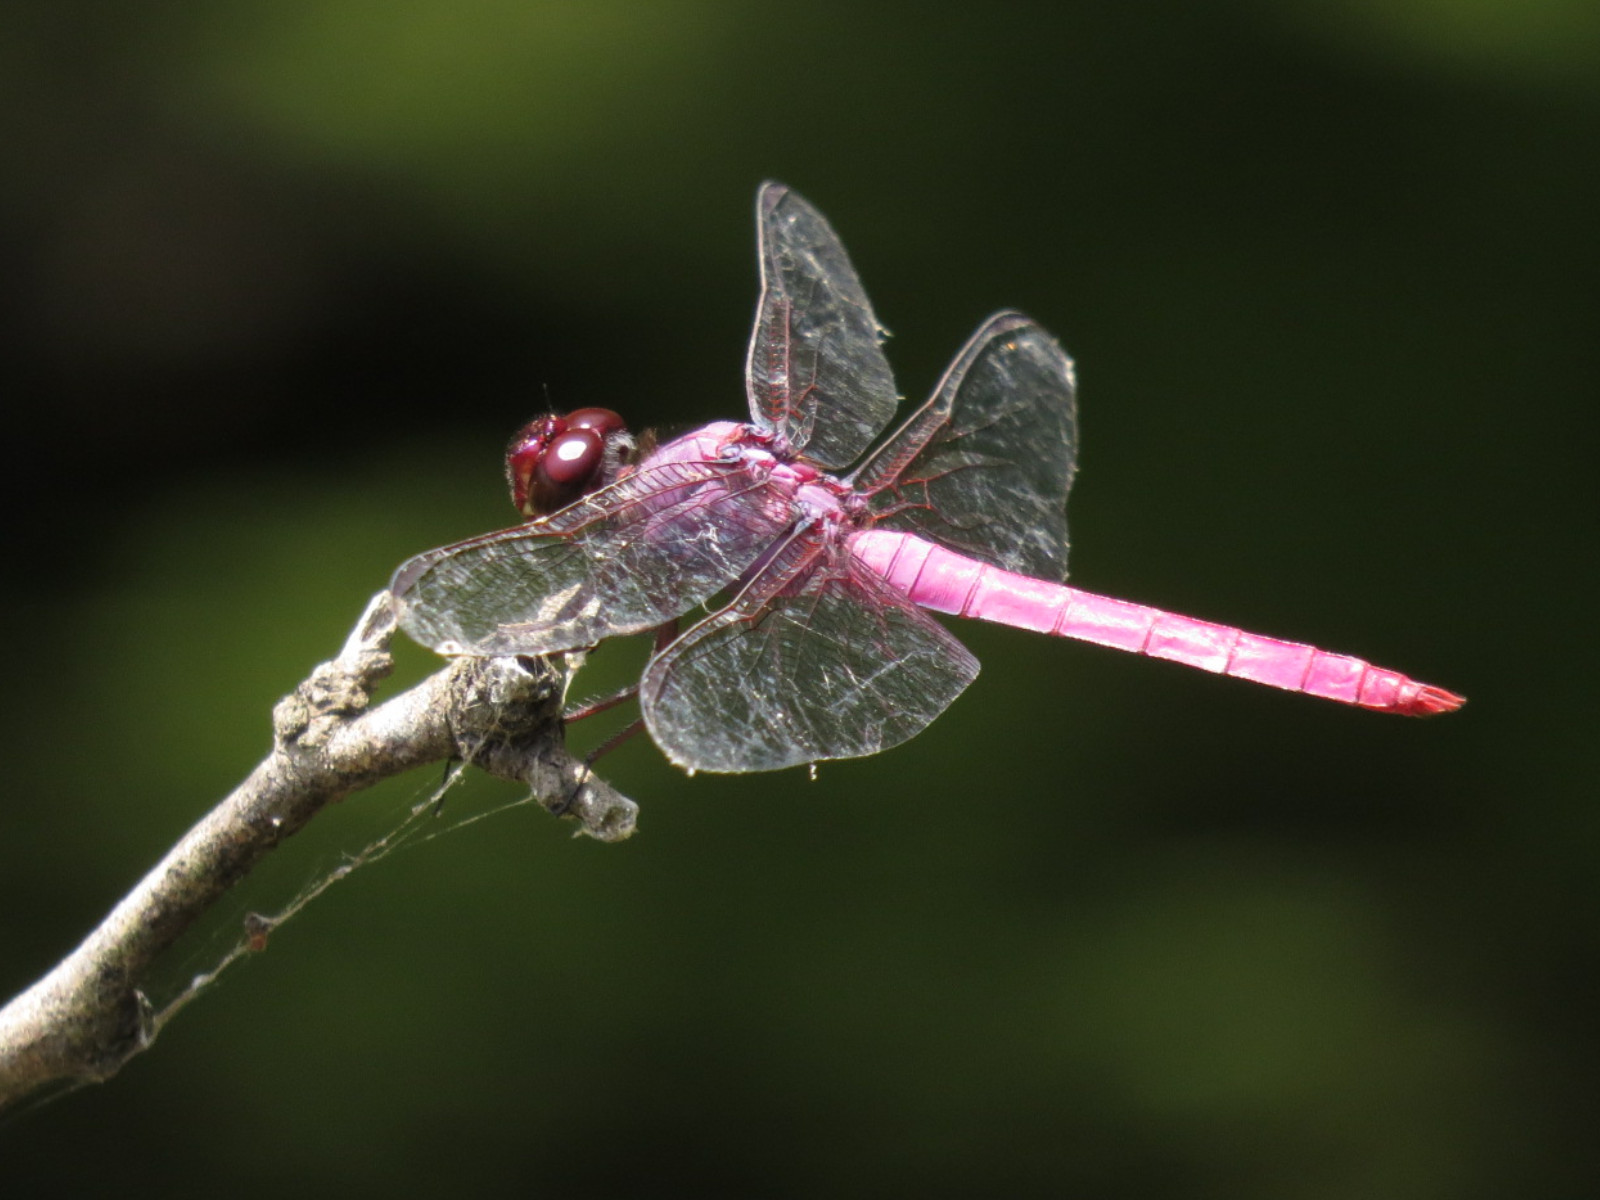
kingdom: Animalia
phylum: Arthropoda
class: Insecta
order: Odonata
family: Libellulidae
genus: Orthemis
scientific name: Orthemis ferruginea
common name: Roseate skimmer
